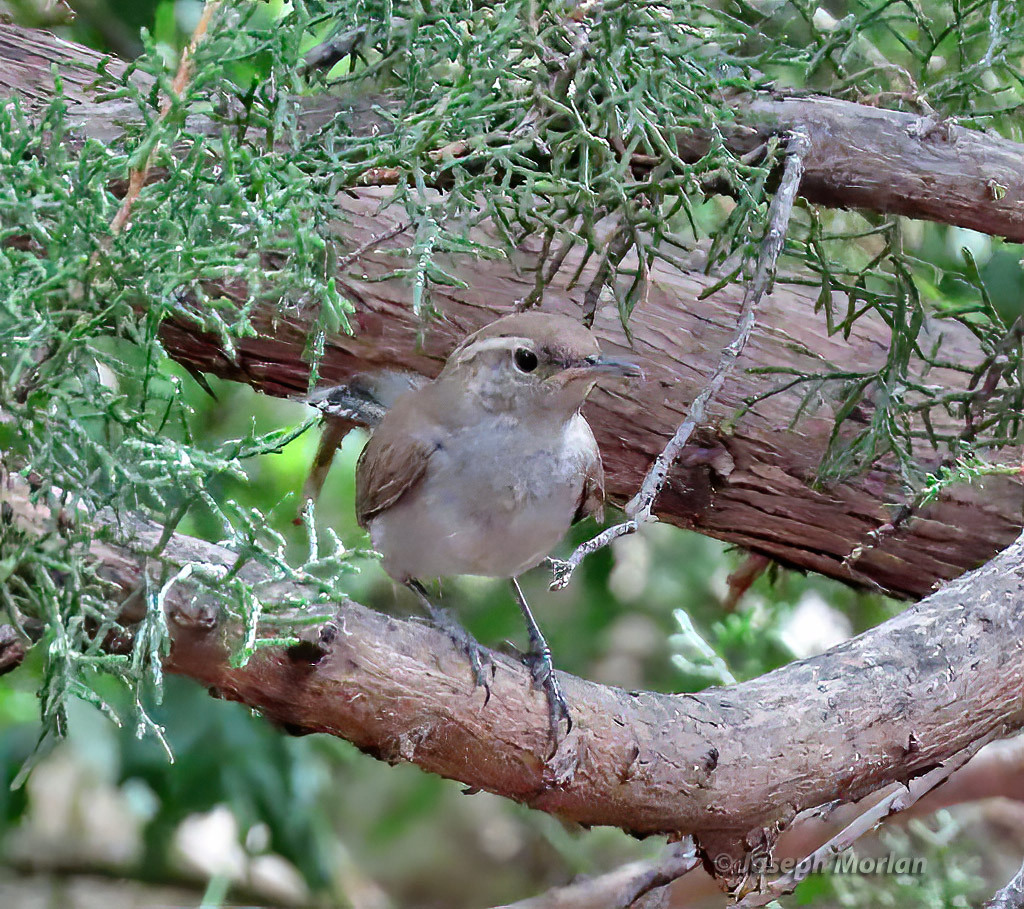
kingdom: Animalia
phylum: Chordata
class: Aves
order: Passeriformes
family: Troglodytidae
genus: Thryomanes
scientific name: Thryomanes bewickii
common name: Bewick's wren
